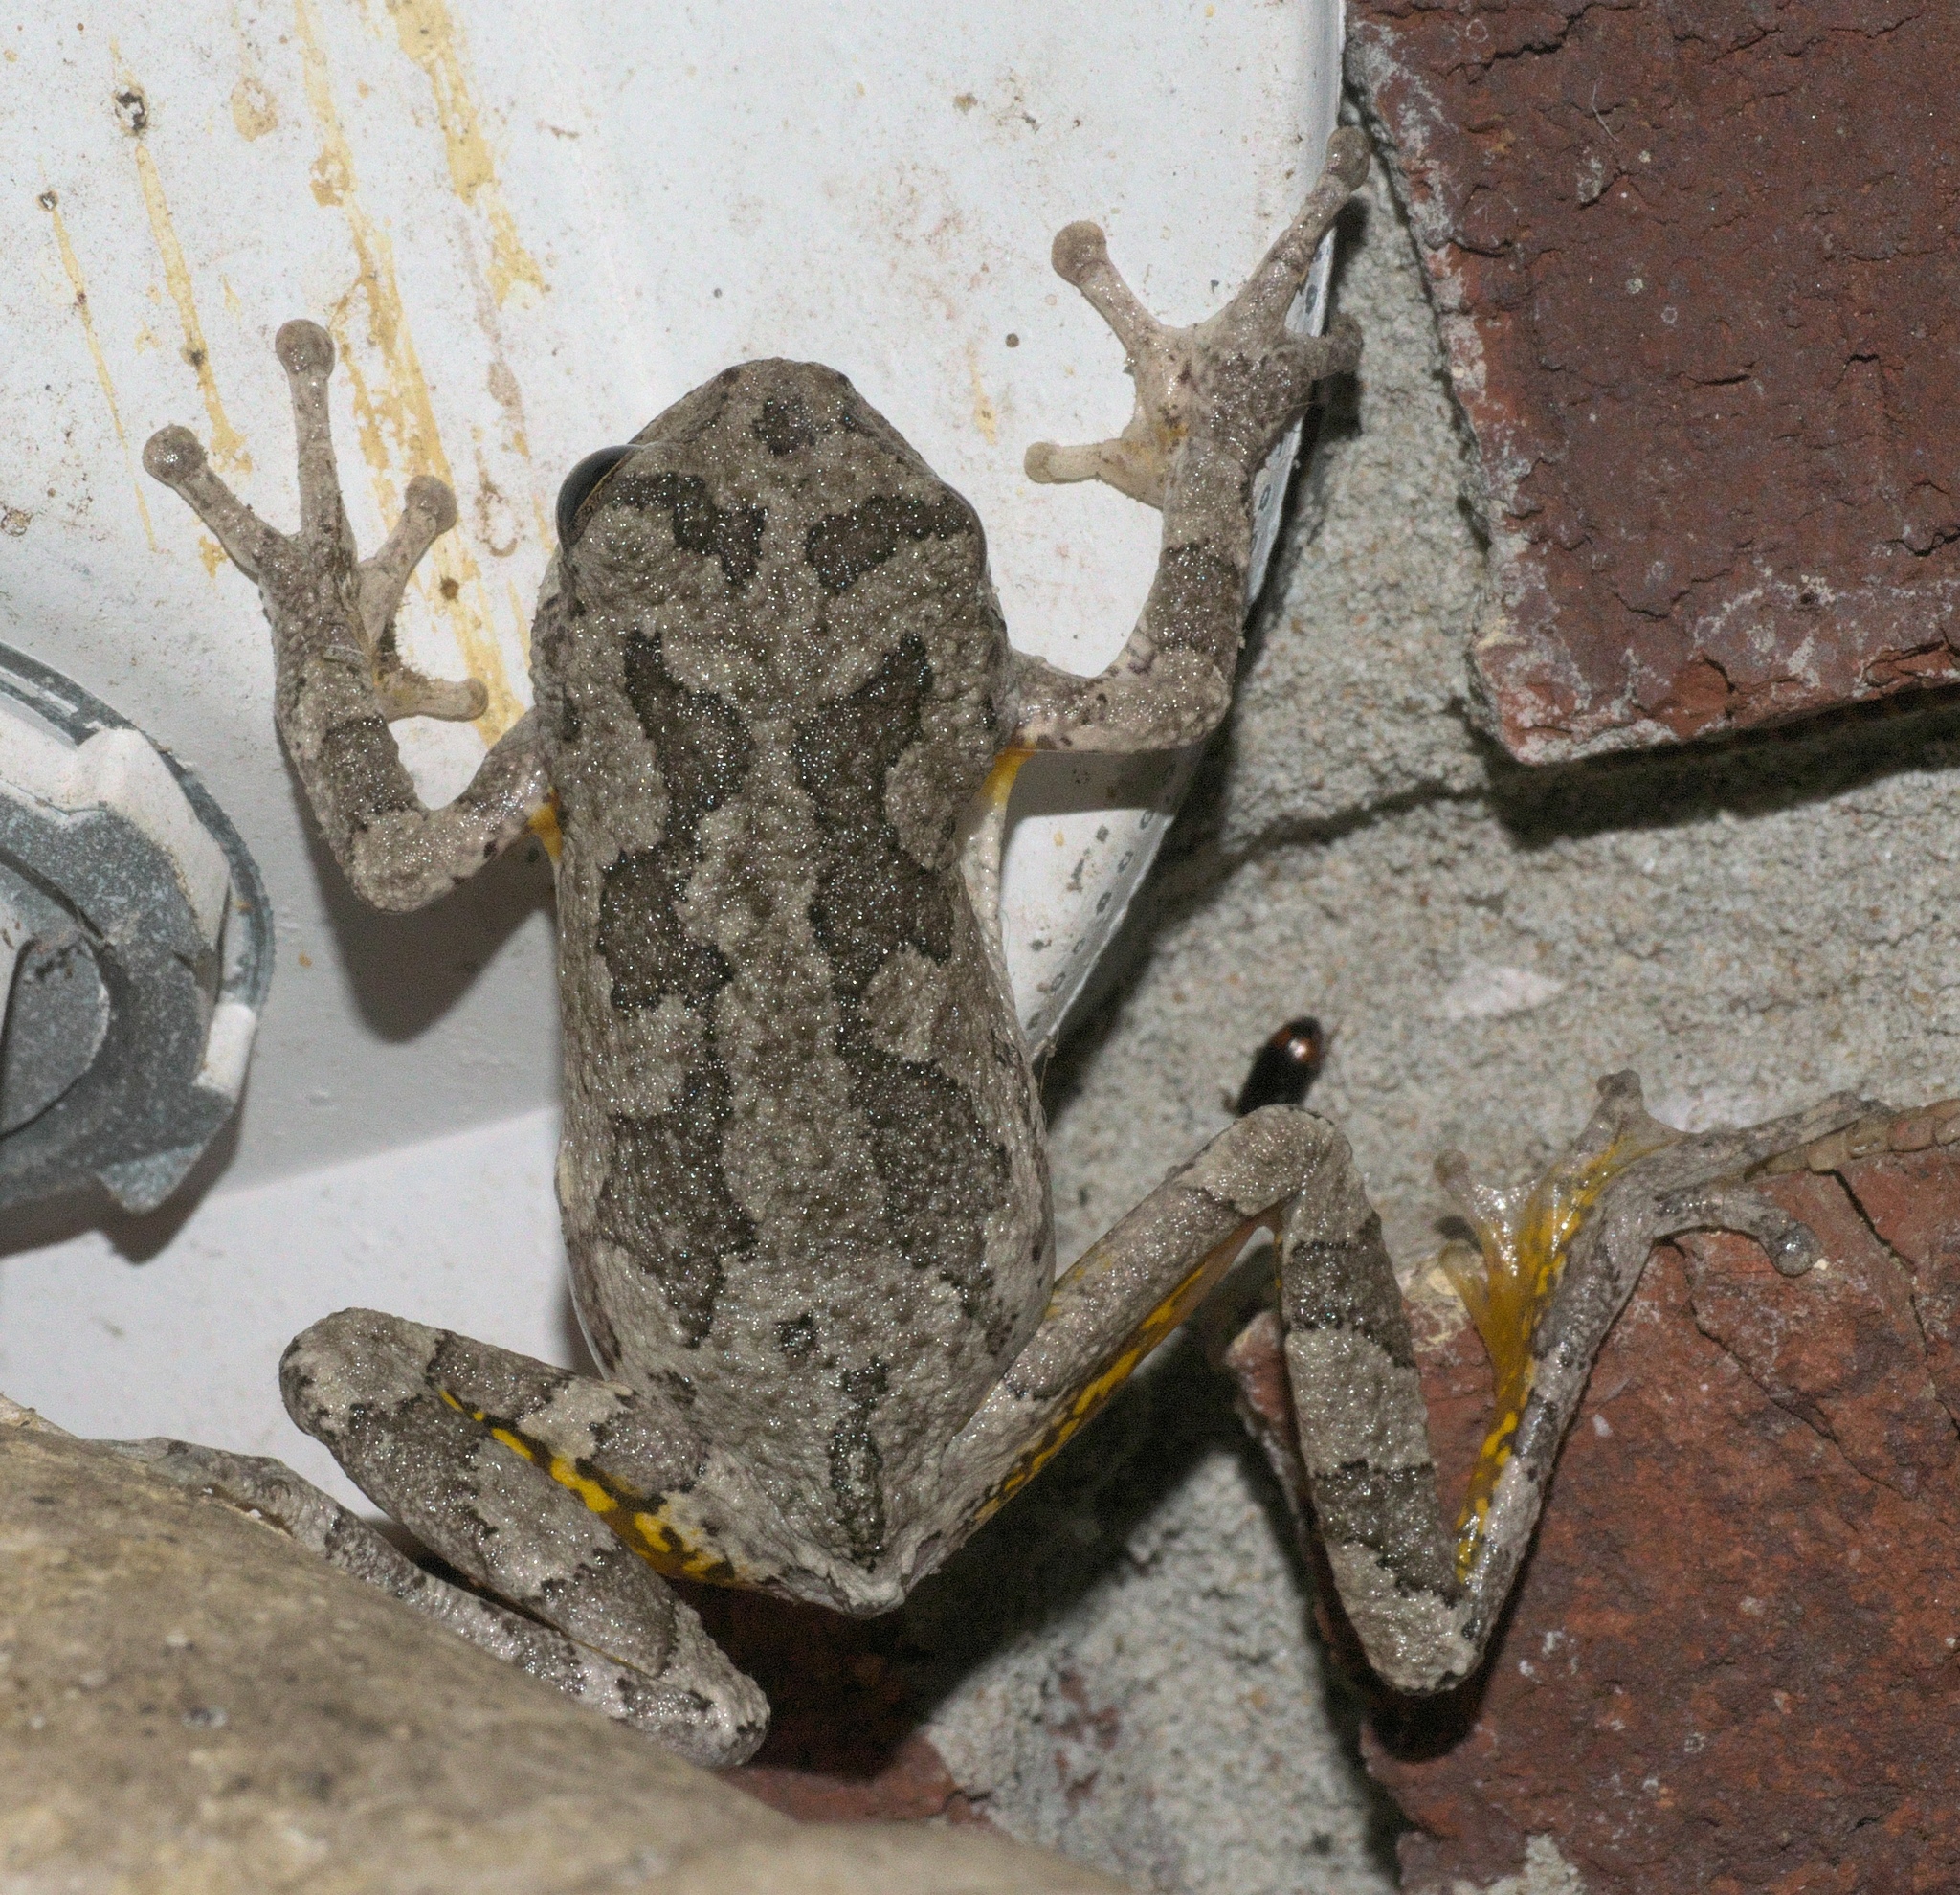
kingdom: Animalia
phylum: Chordata
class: Amphibia
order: Anura
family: Hylidae
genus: Hyla
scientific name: Hyla
